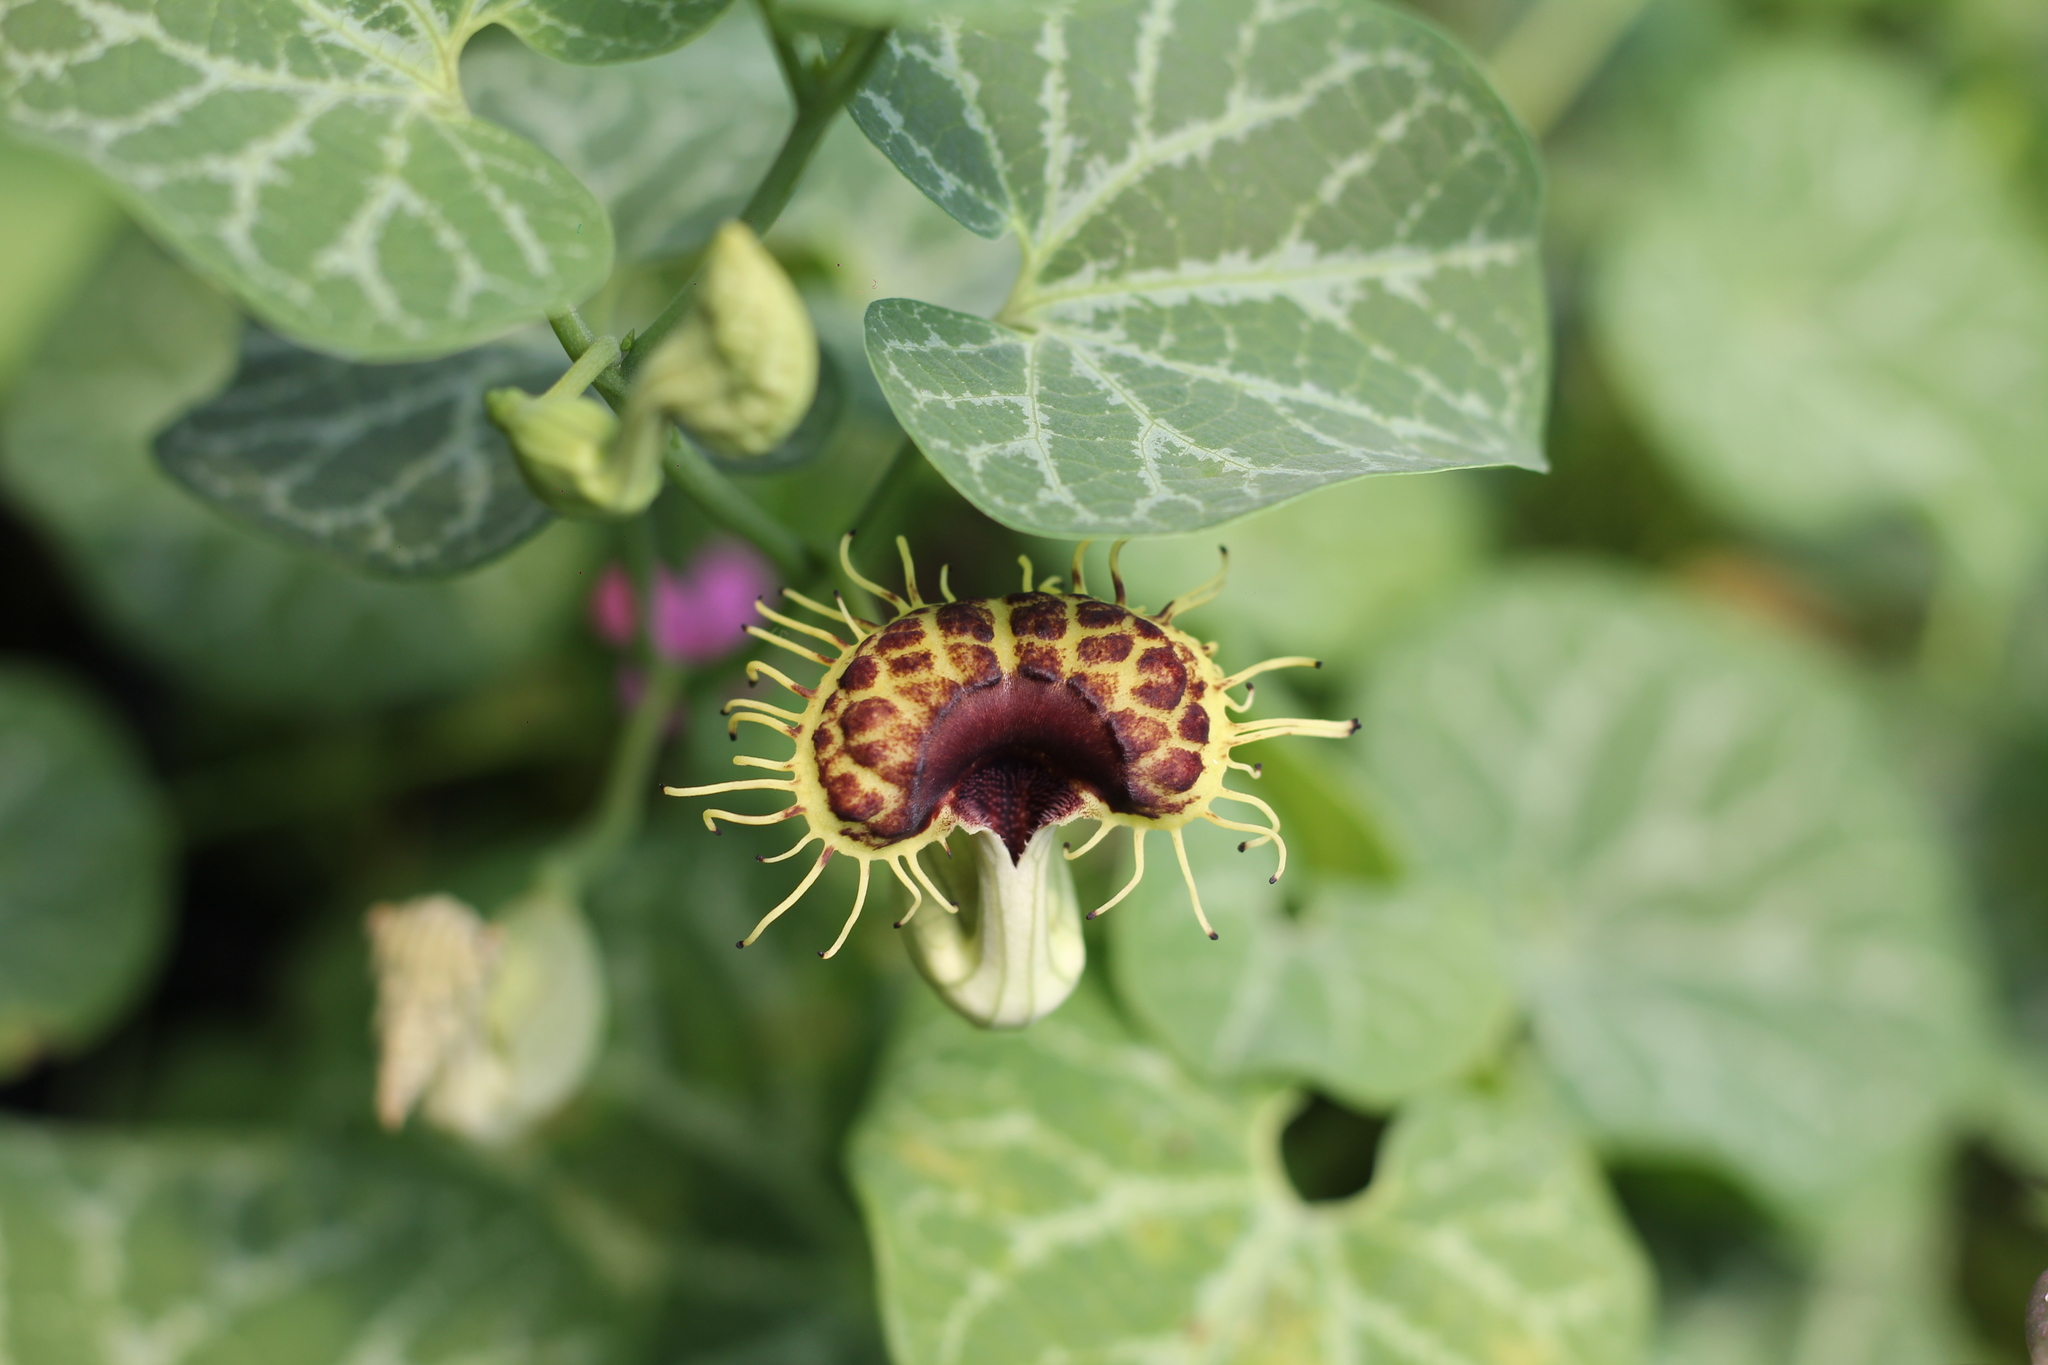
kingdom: Plantae
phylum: Tracheophyta
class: Magnoliopsida
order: Piperales
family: Aristolochiaceae
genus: Aristolochia
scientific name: Aristolochia fimbriata
